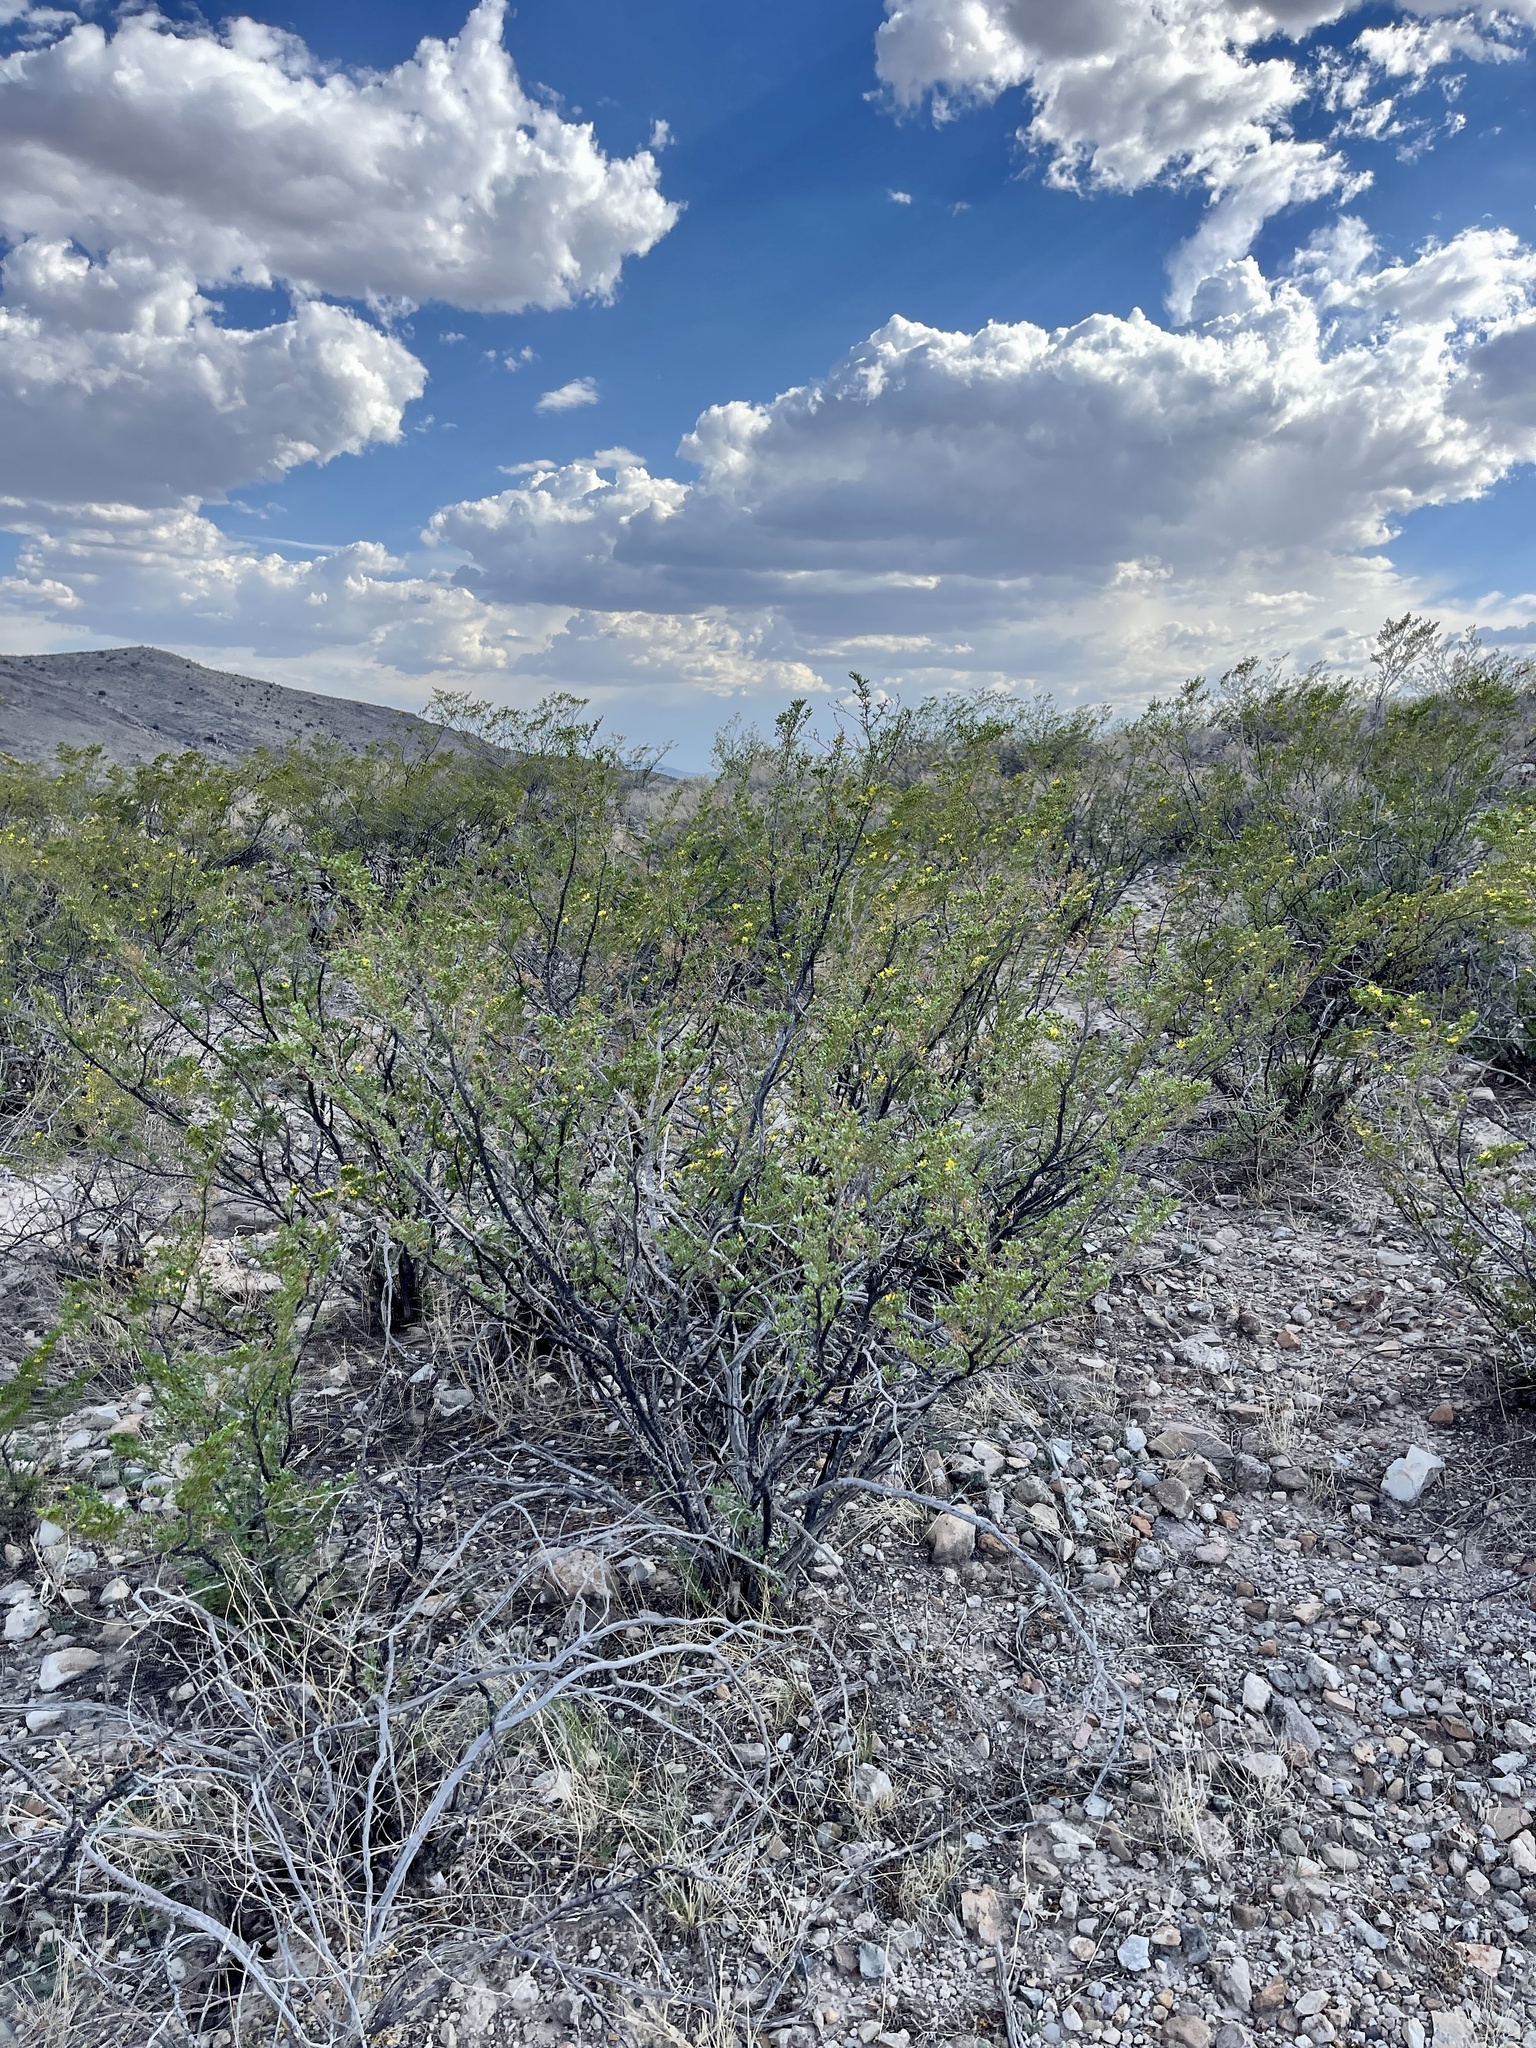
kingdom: Plantae
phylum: Tracheophyta
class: Magnoliopsida
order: Zygophyllales
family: Zygophyllaceae
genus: Larrea
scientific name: Larrea tridentata
